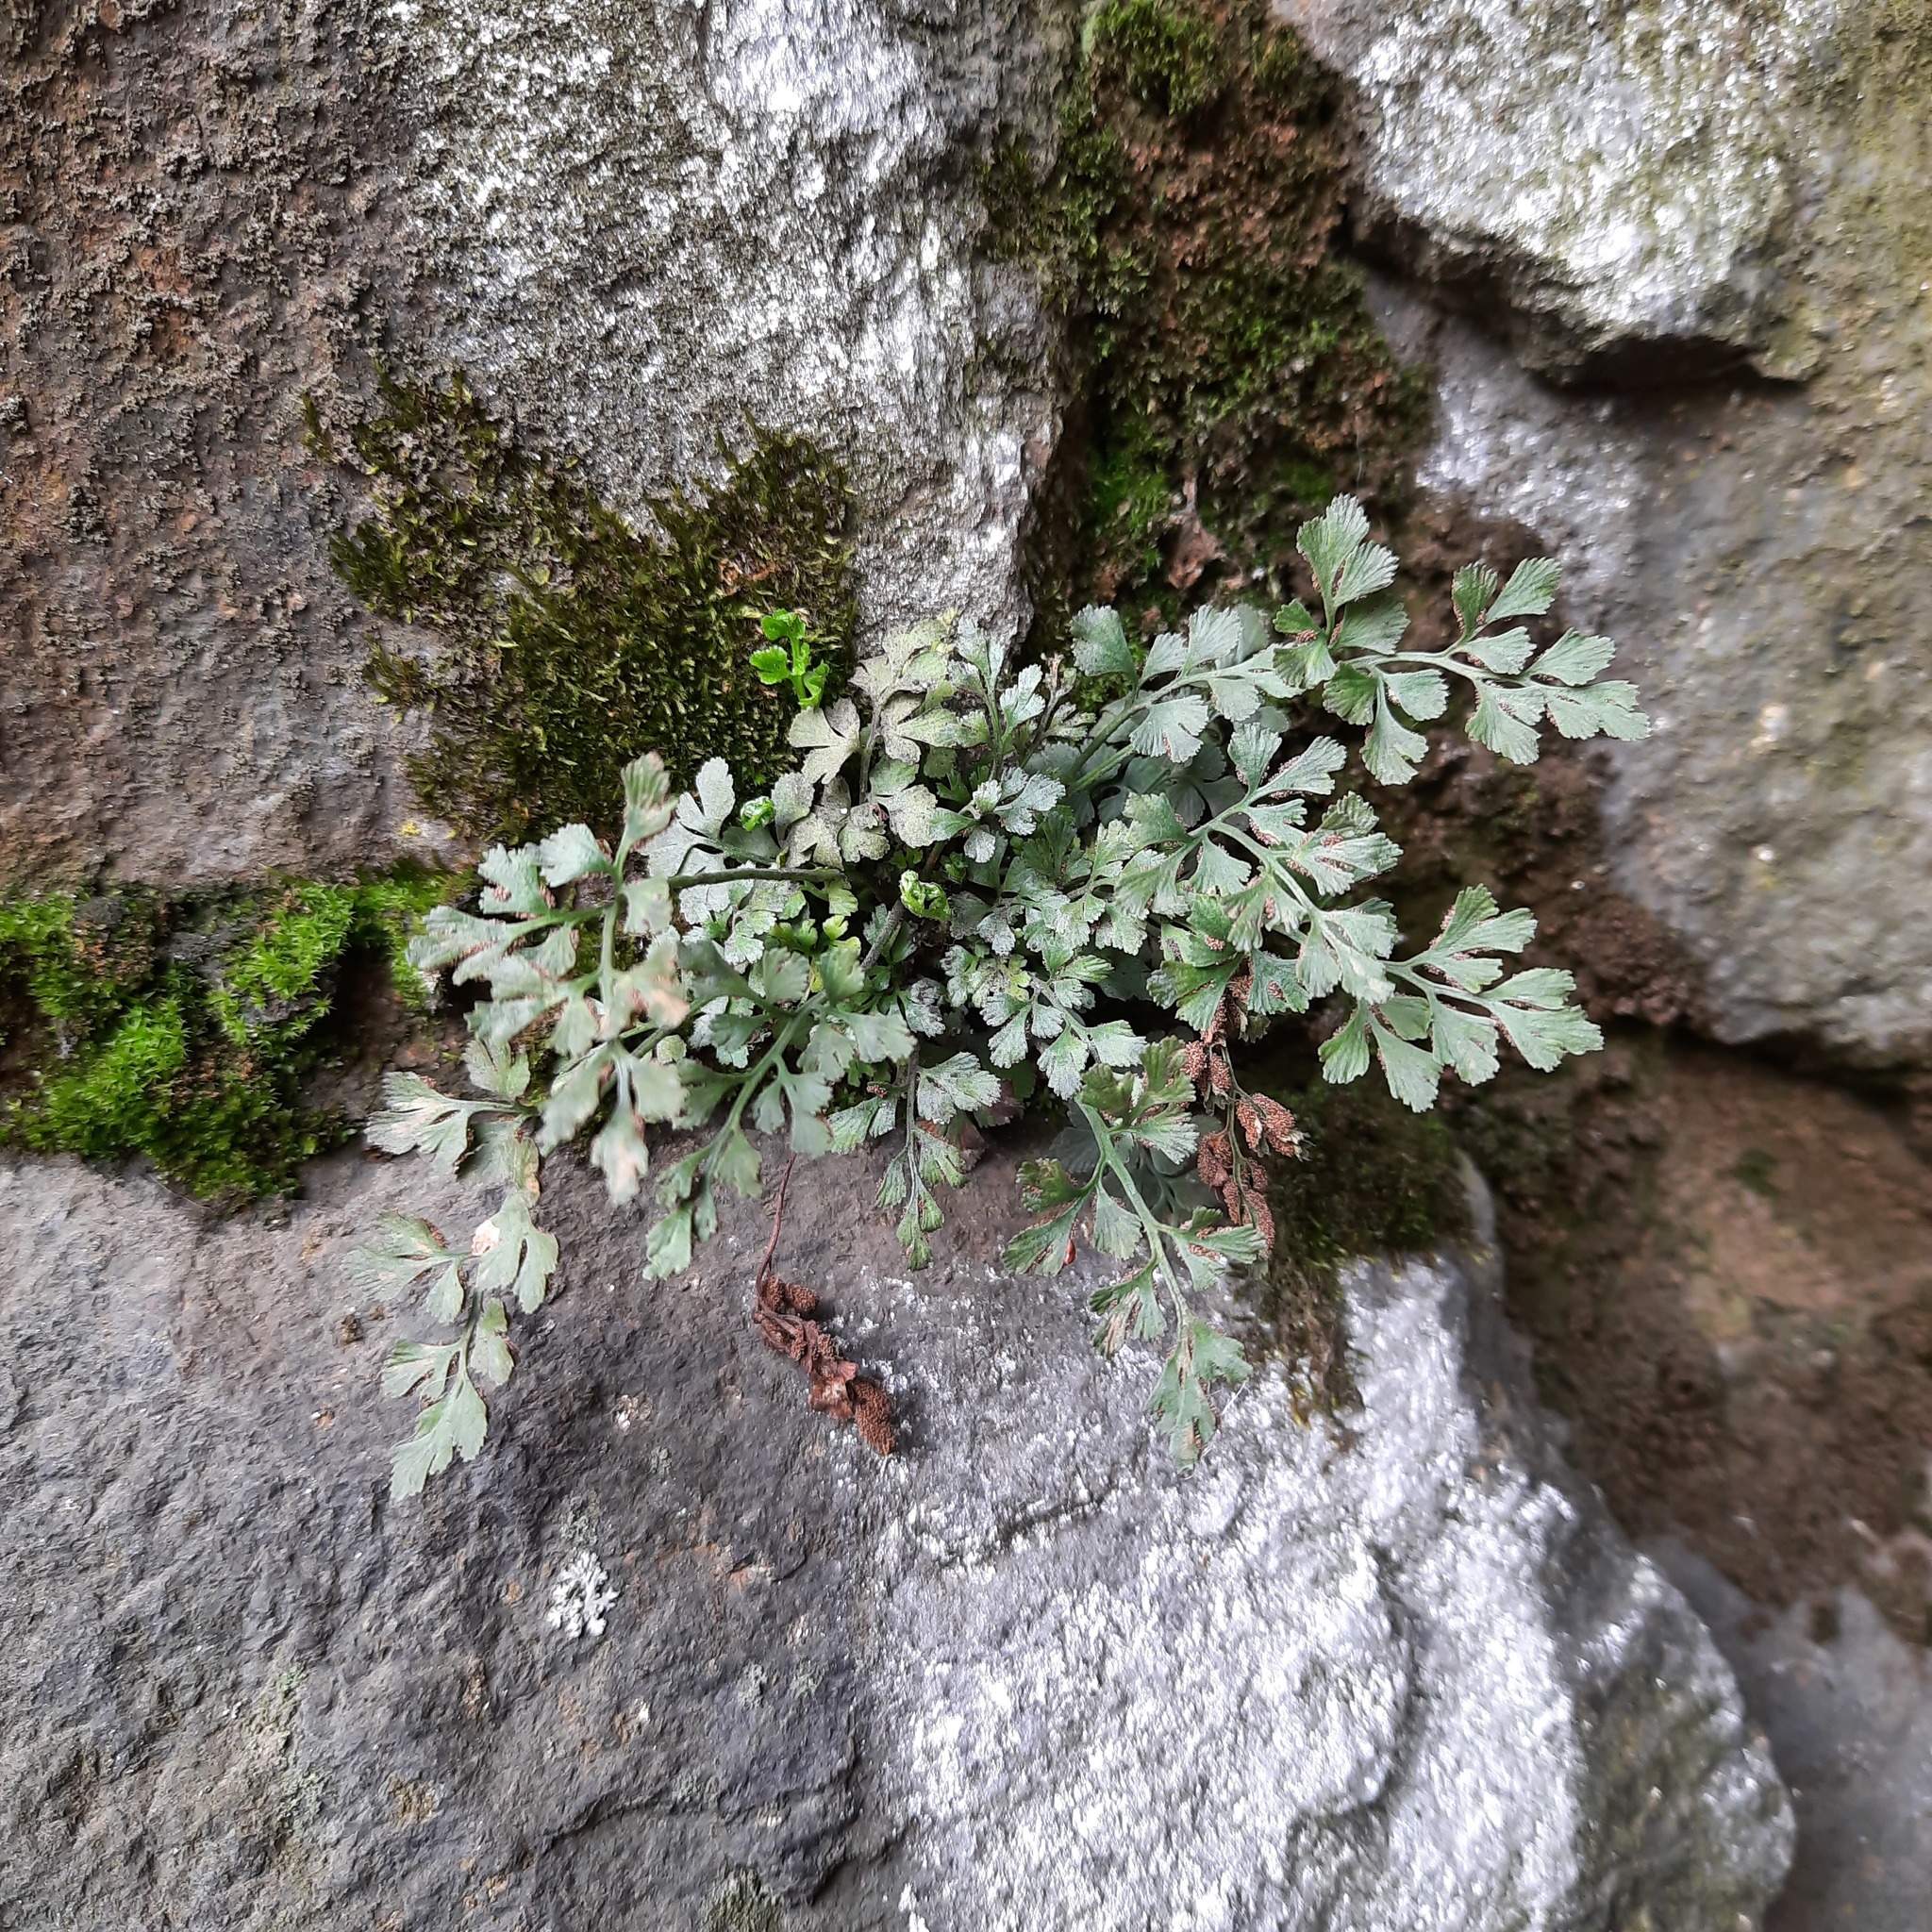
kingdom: Plantae
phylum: Tracheophyta
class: Polypodiopsida
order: Polypodiales
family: Aspleniaceae
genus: Asplenium
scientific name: Asplenium ruta-muraria
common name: Wall-rue
